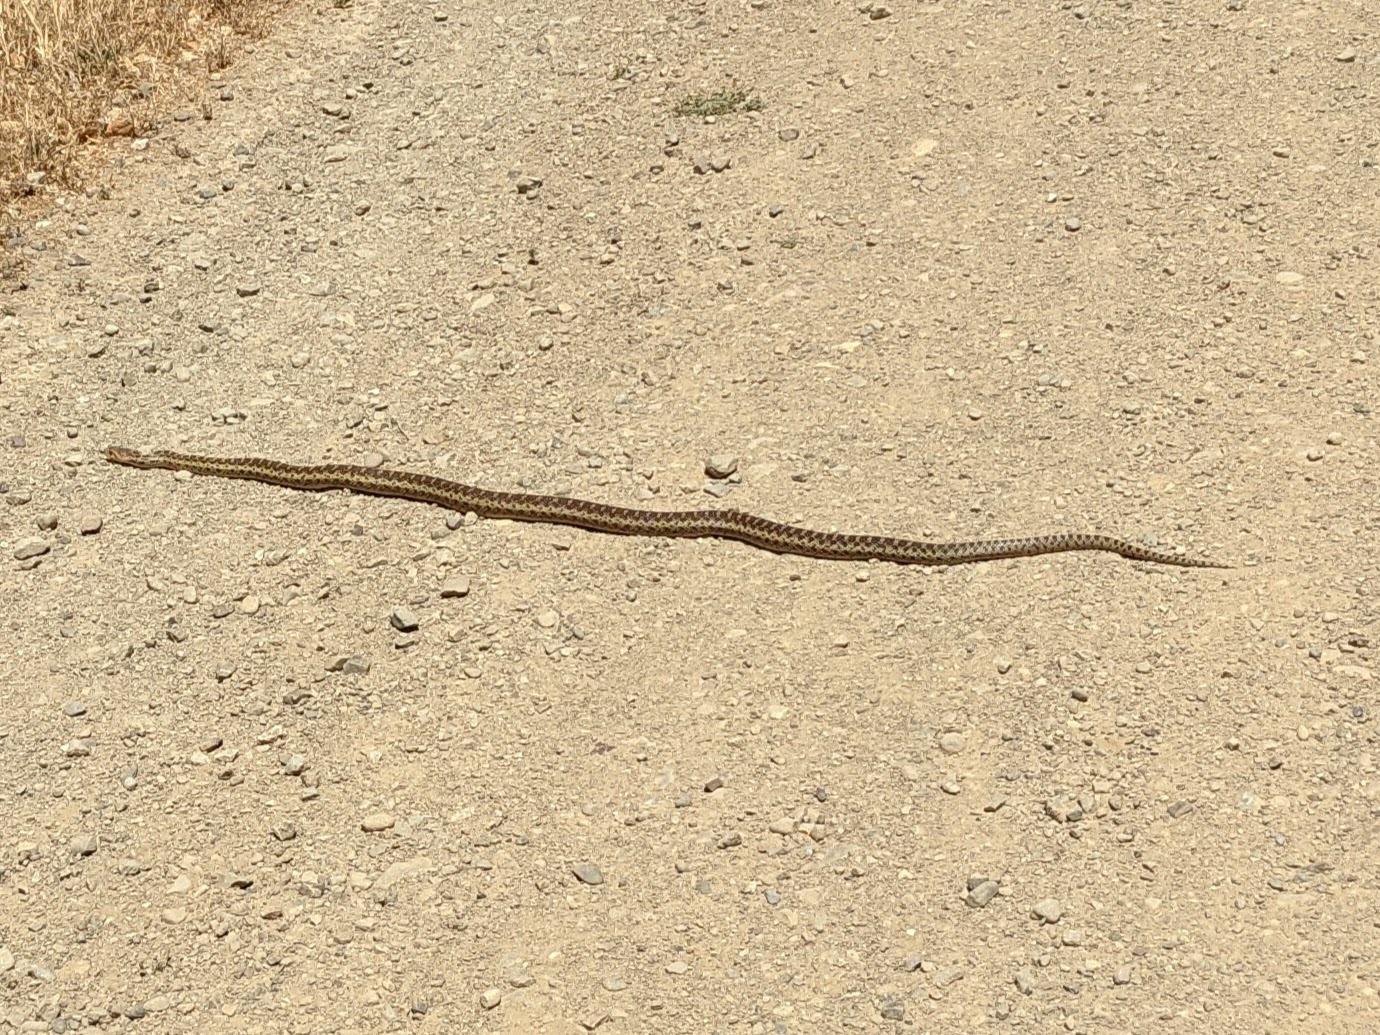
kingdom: Animalia
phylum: Chordata
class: Squamata
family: Colubridae
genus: Pituophis
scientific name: Pituophis catenifer
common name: Gopher snake
